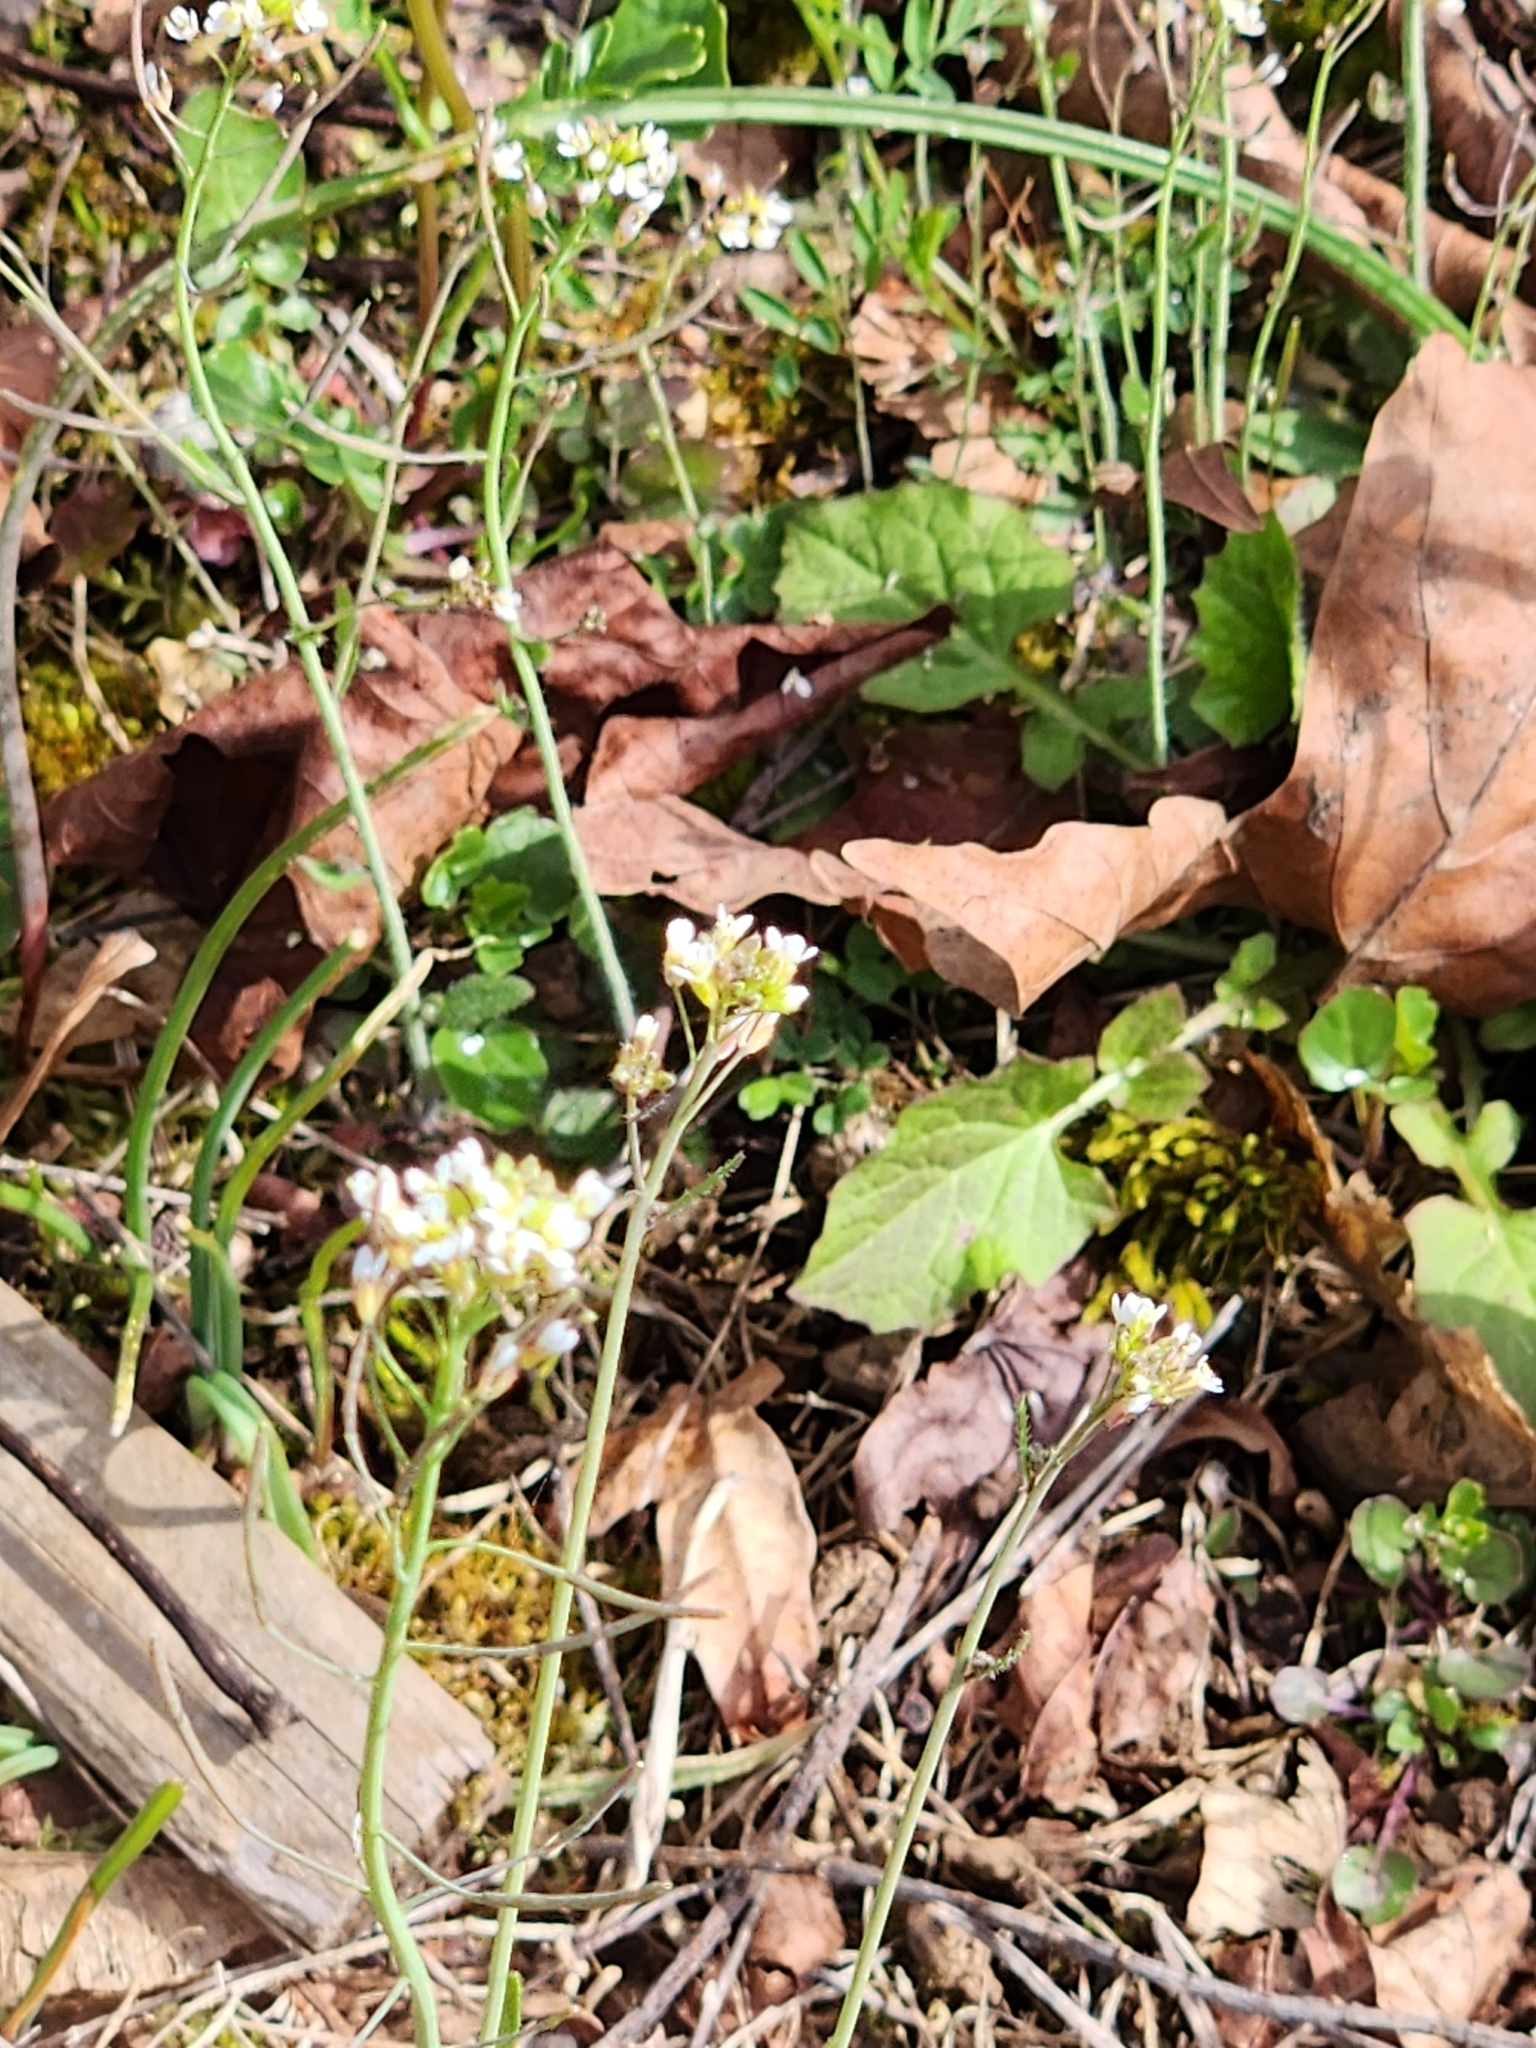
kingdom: Plantae
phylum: Tracheophyta
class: Magnoliopsida
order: Brassicales
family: Brassicaceae
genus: Arabidopsis
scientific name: Arabidopsis thaliana
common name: Thale cress
